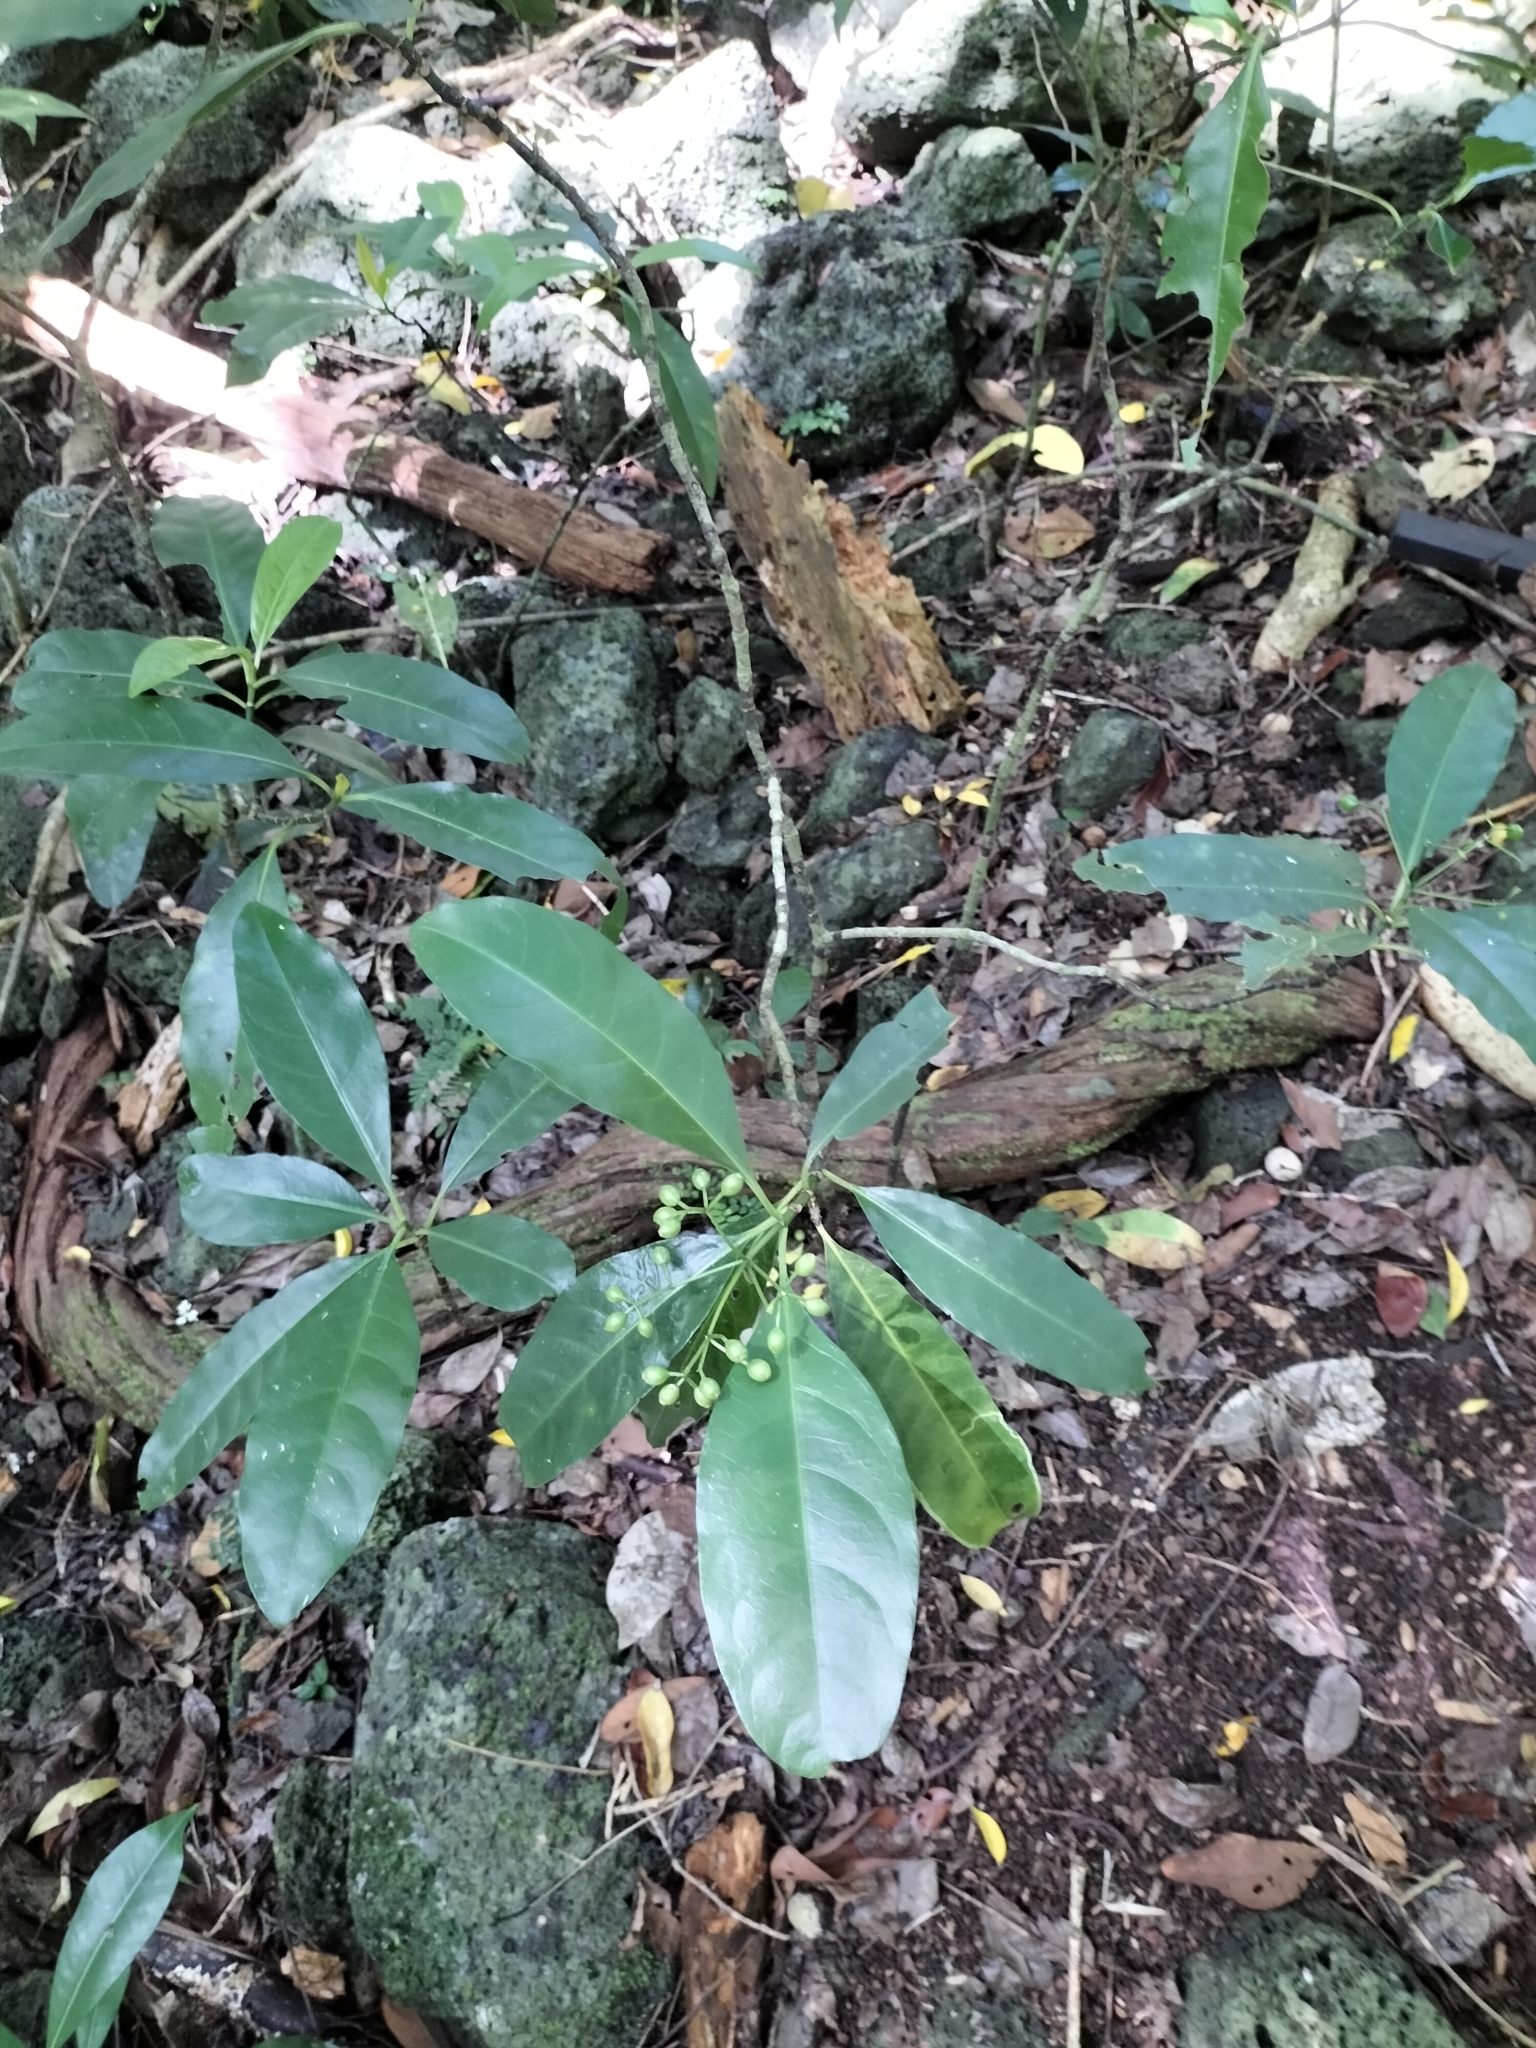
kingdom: Plantae
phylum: Tracheophyta
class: Magnoliopsida
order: Gentianales
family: Rubiaceae
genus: Eumachia
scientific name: Eumachia frutescens
